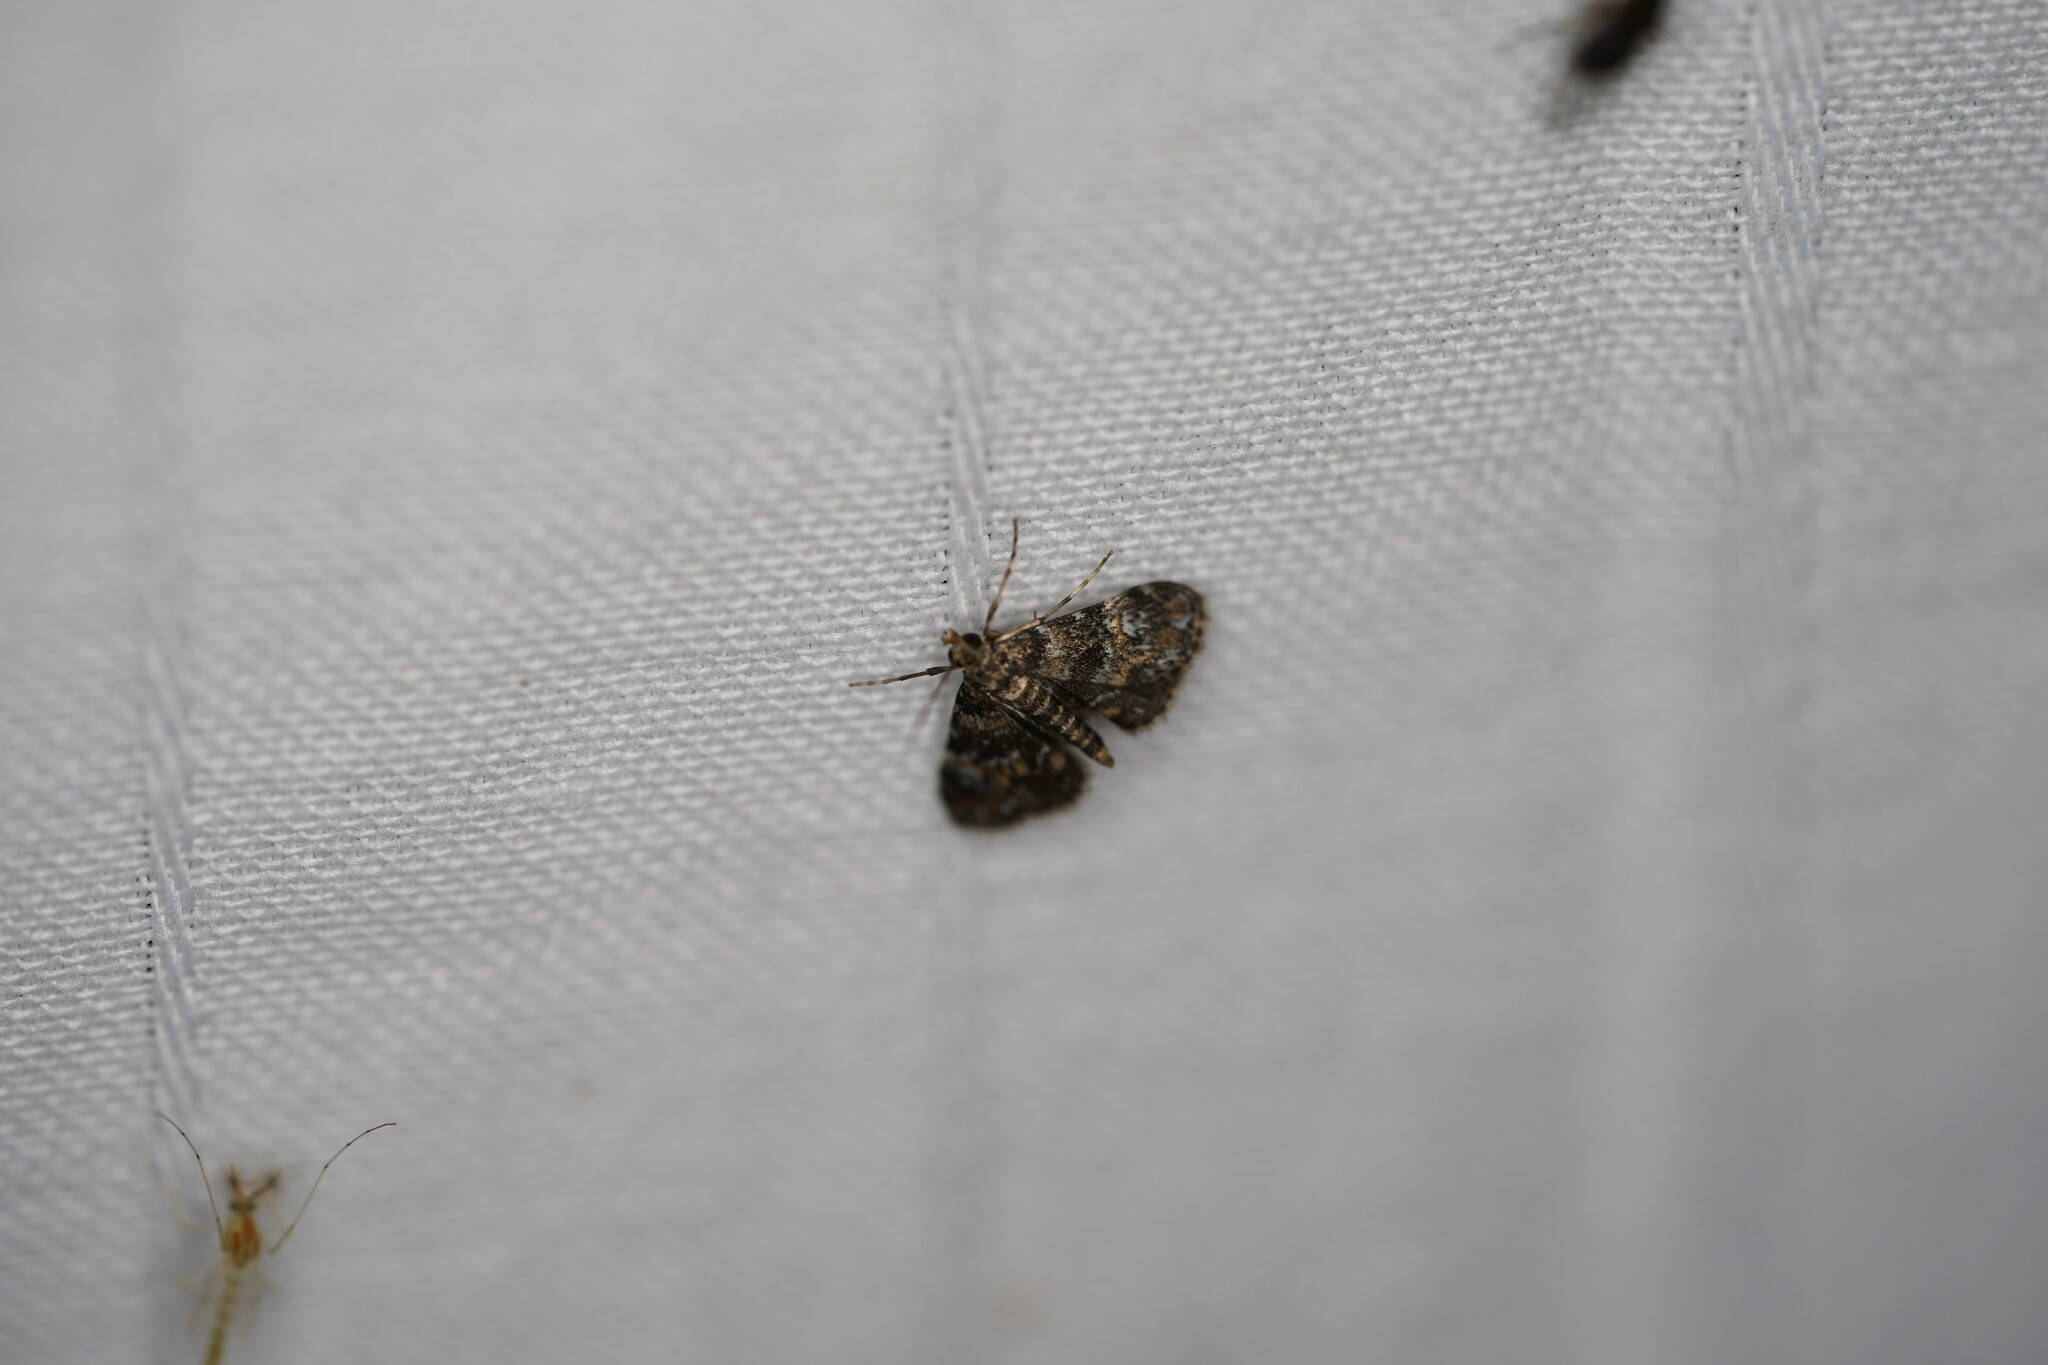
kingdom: Animalia
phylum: Arthropoda
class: Insecta
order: Lepidoptera
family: Crambidae
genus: Elophila
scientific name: Elophila obliteralis
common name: Waterlily leafcutter moth
